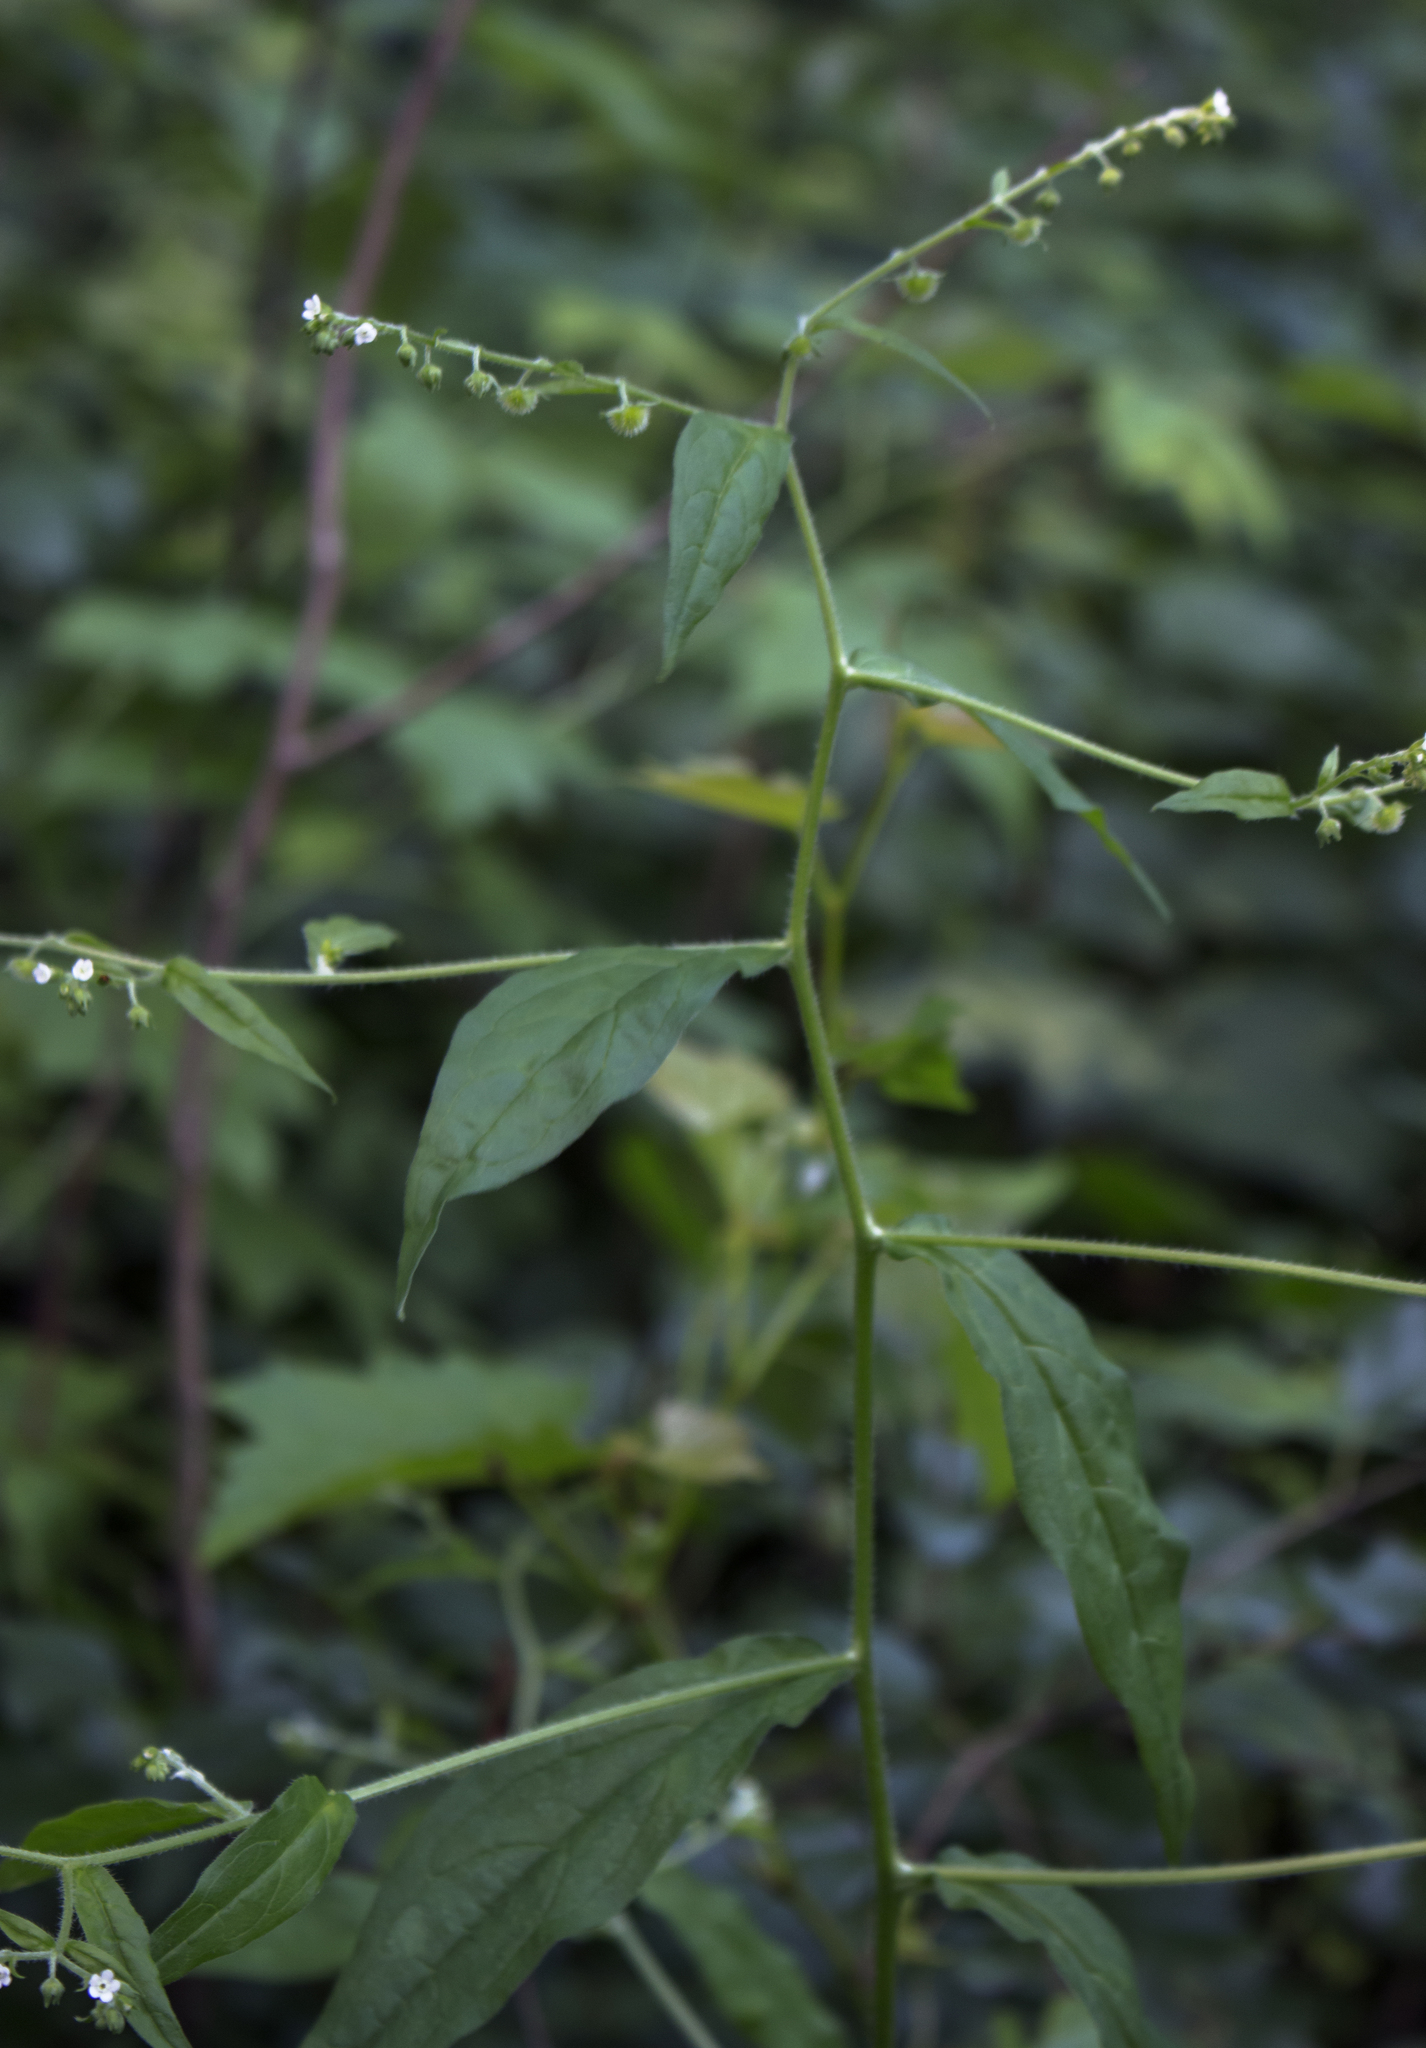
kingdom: Plantae
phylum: Tracheophyta
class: Magnoliopsida
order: Boraginales
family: Boraginaceae
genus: Hackelia
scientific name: Hackelia virginiana
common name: Beggar's-lice
